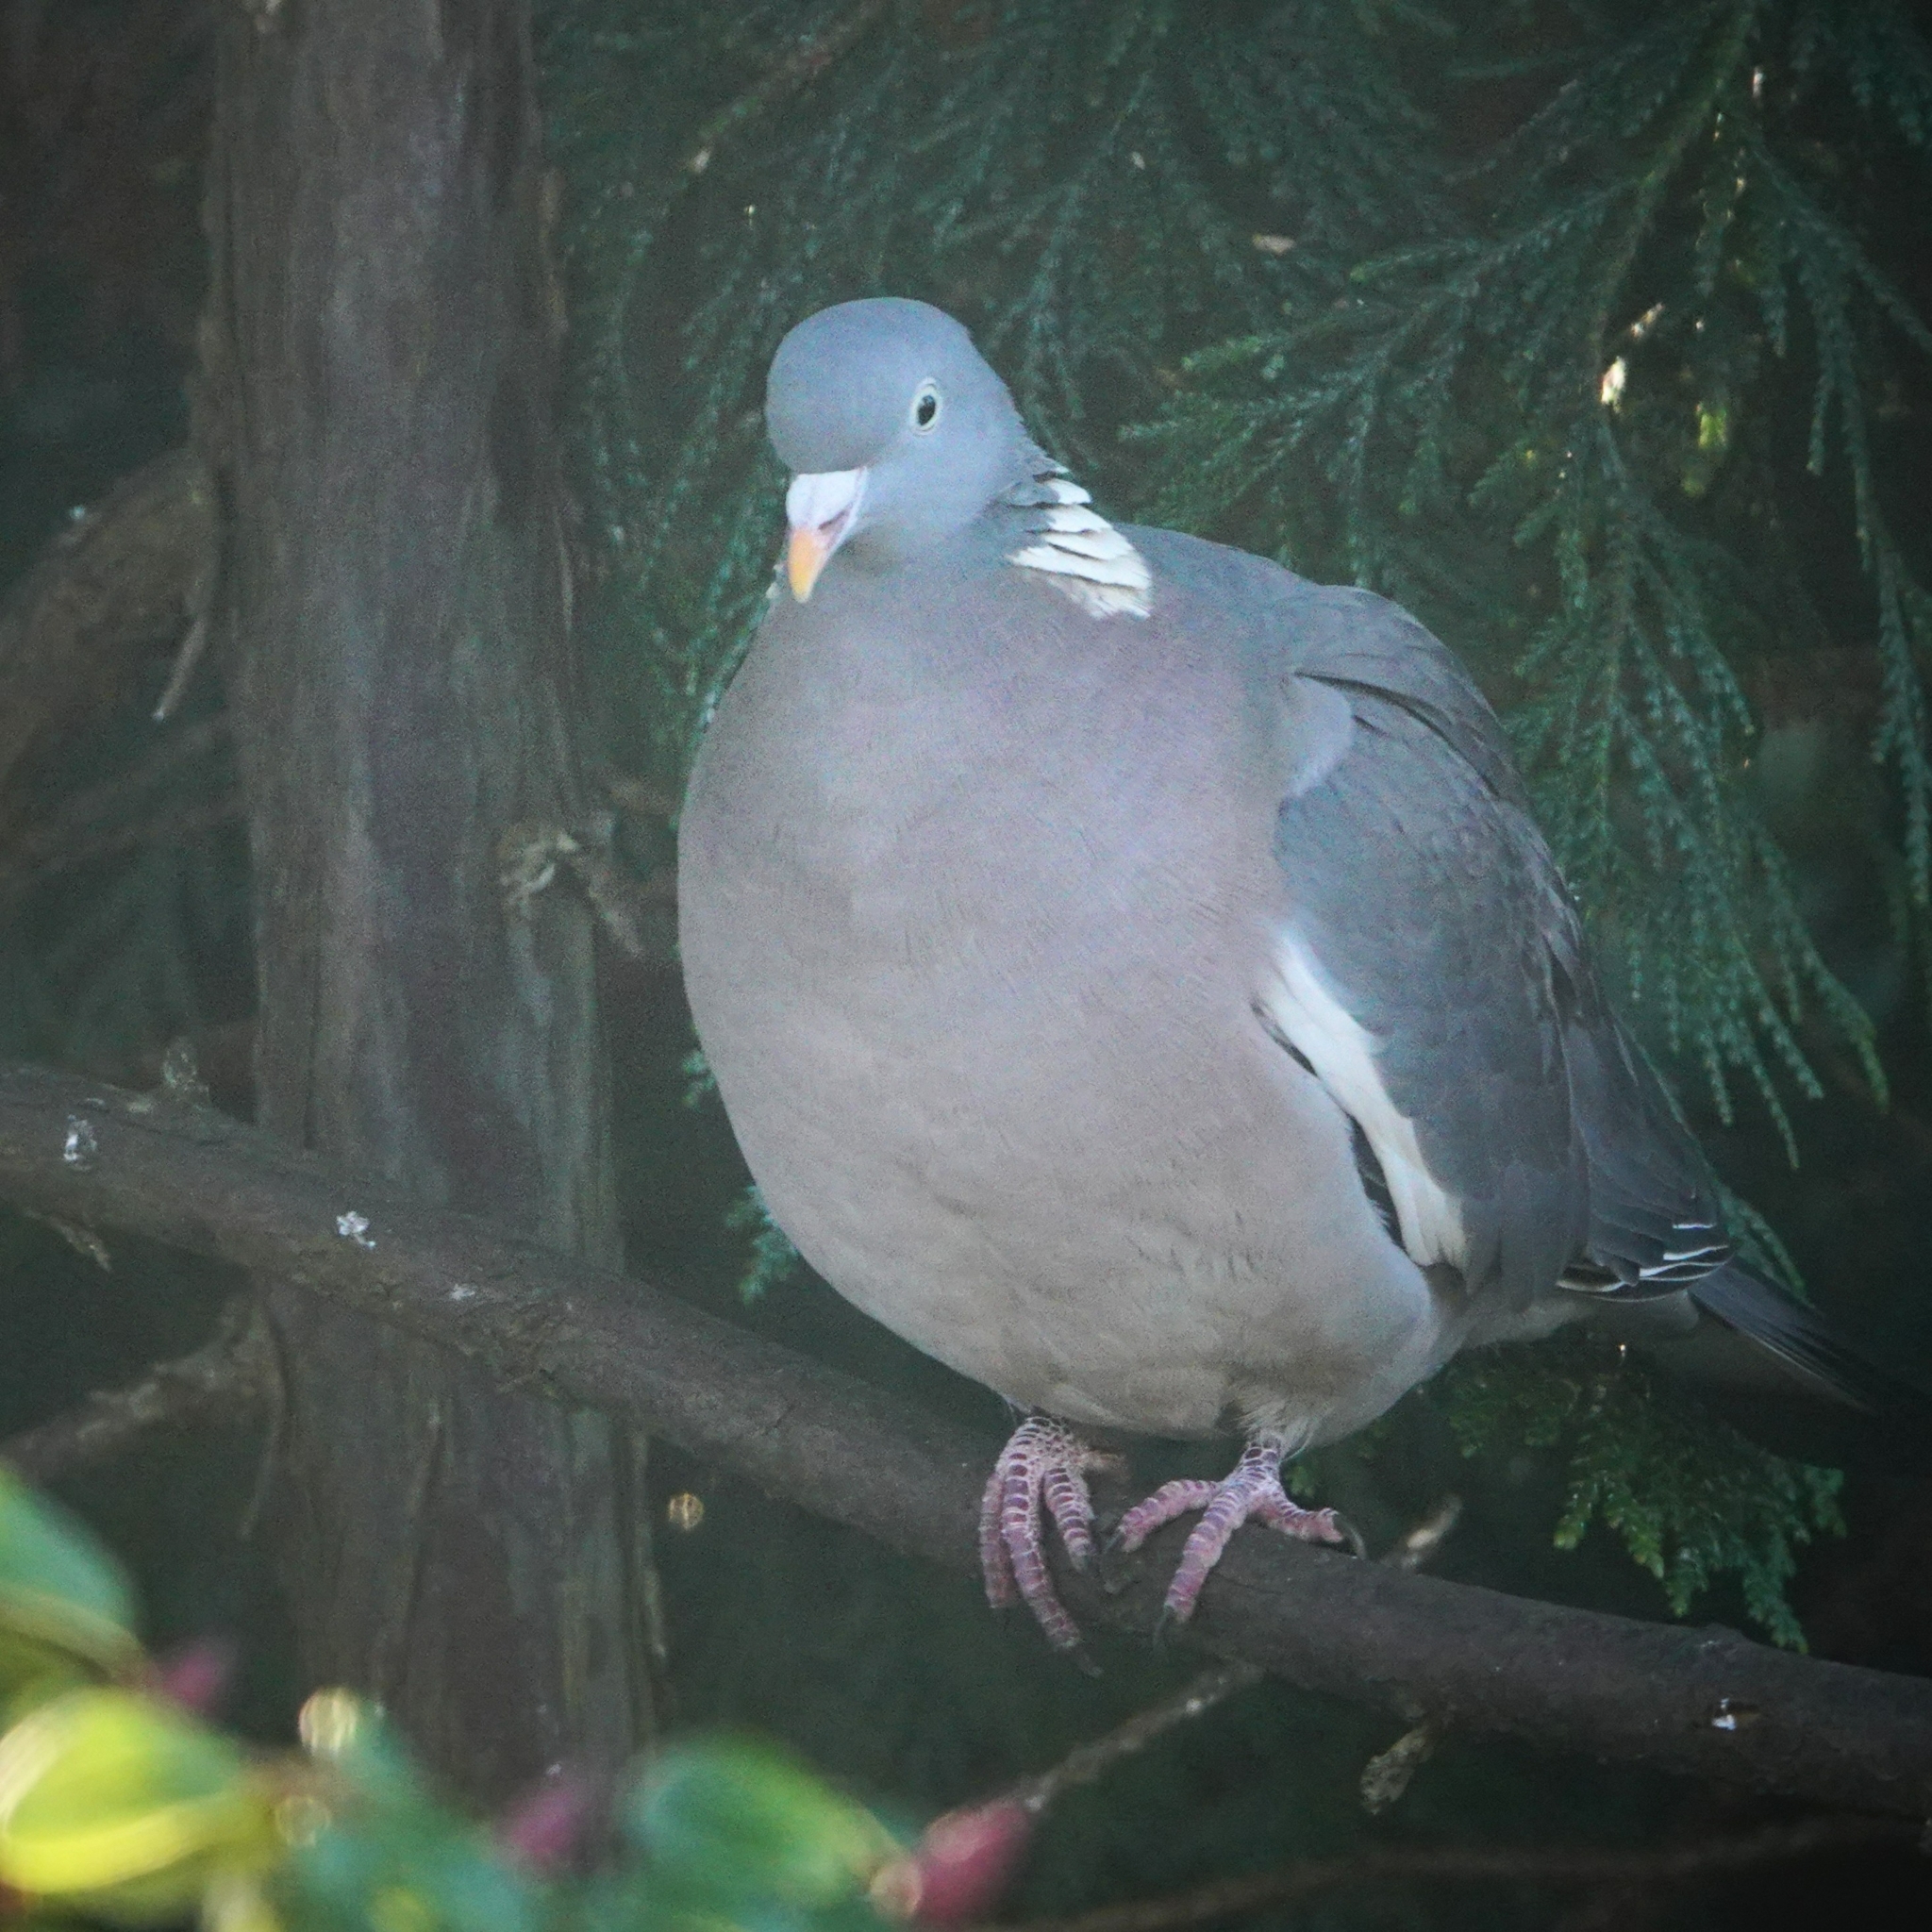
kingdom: Animalia
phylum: Chordata
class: Aves
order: Columbiformes
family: Columbidae
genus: Columba
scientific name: Columba palumbus
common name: Common wood pigeon
